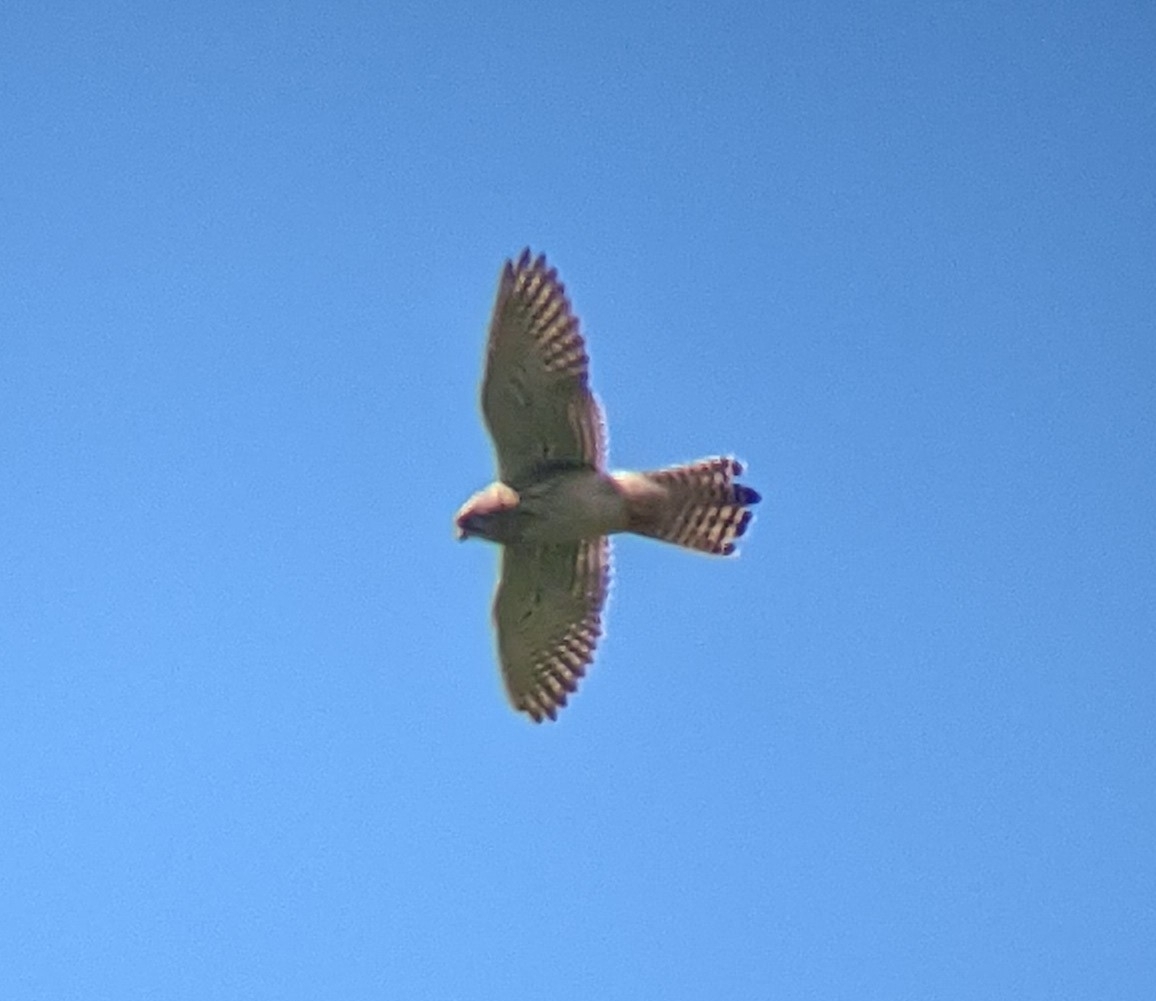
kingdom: Animalia
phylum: Chordata
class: Aves
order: Falconiformes
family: Falconidae
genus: Falco
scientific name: Falco tinnunculus
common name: Common kestrel
